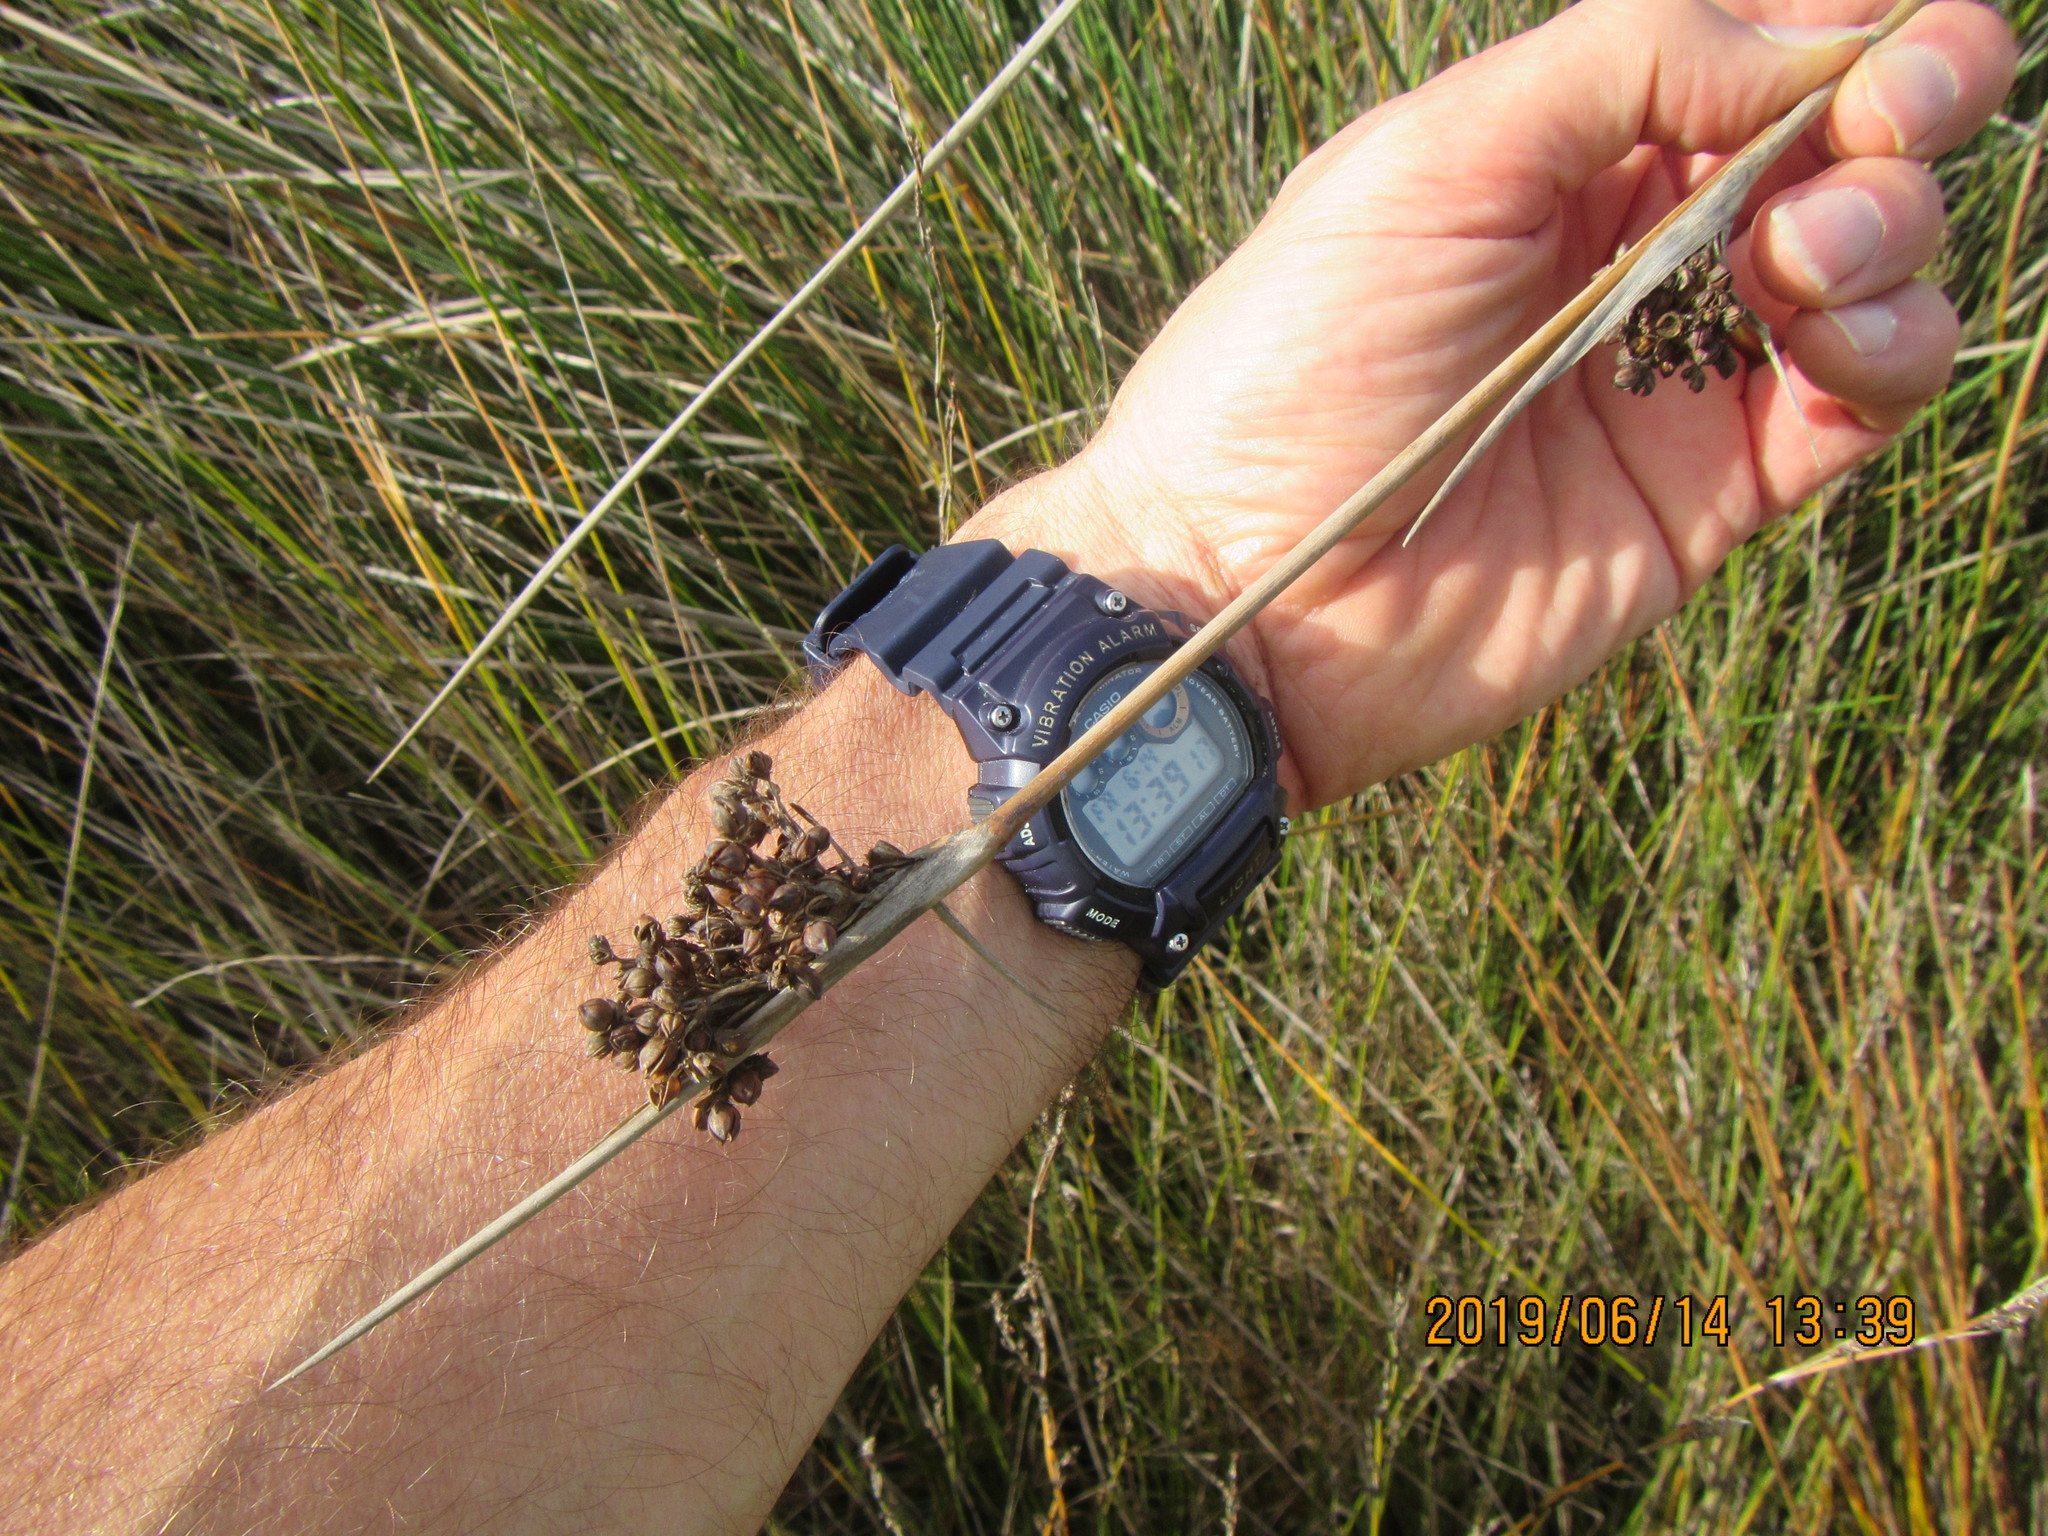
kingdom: Plantae
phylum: Tracheophyta
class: Liliopsida
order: Poales
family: Juncaceae
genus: Juncus
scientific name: Juncus acutus
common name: Sharp rush
